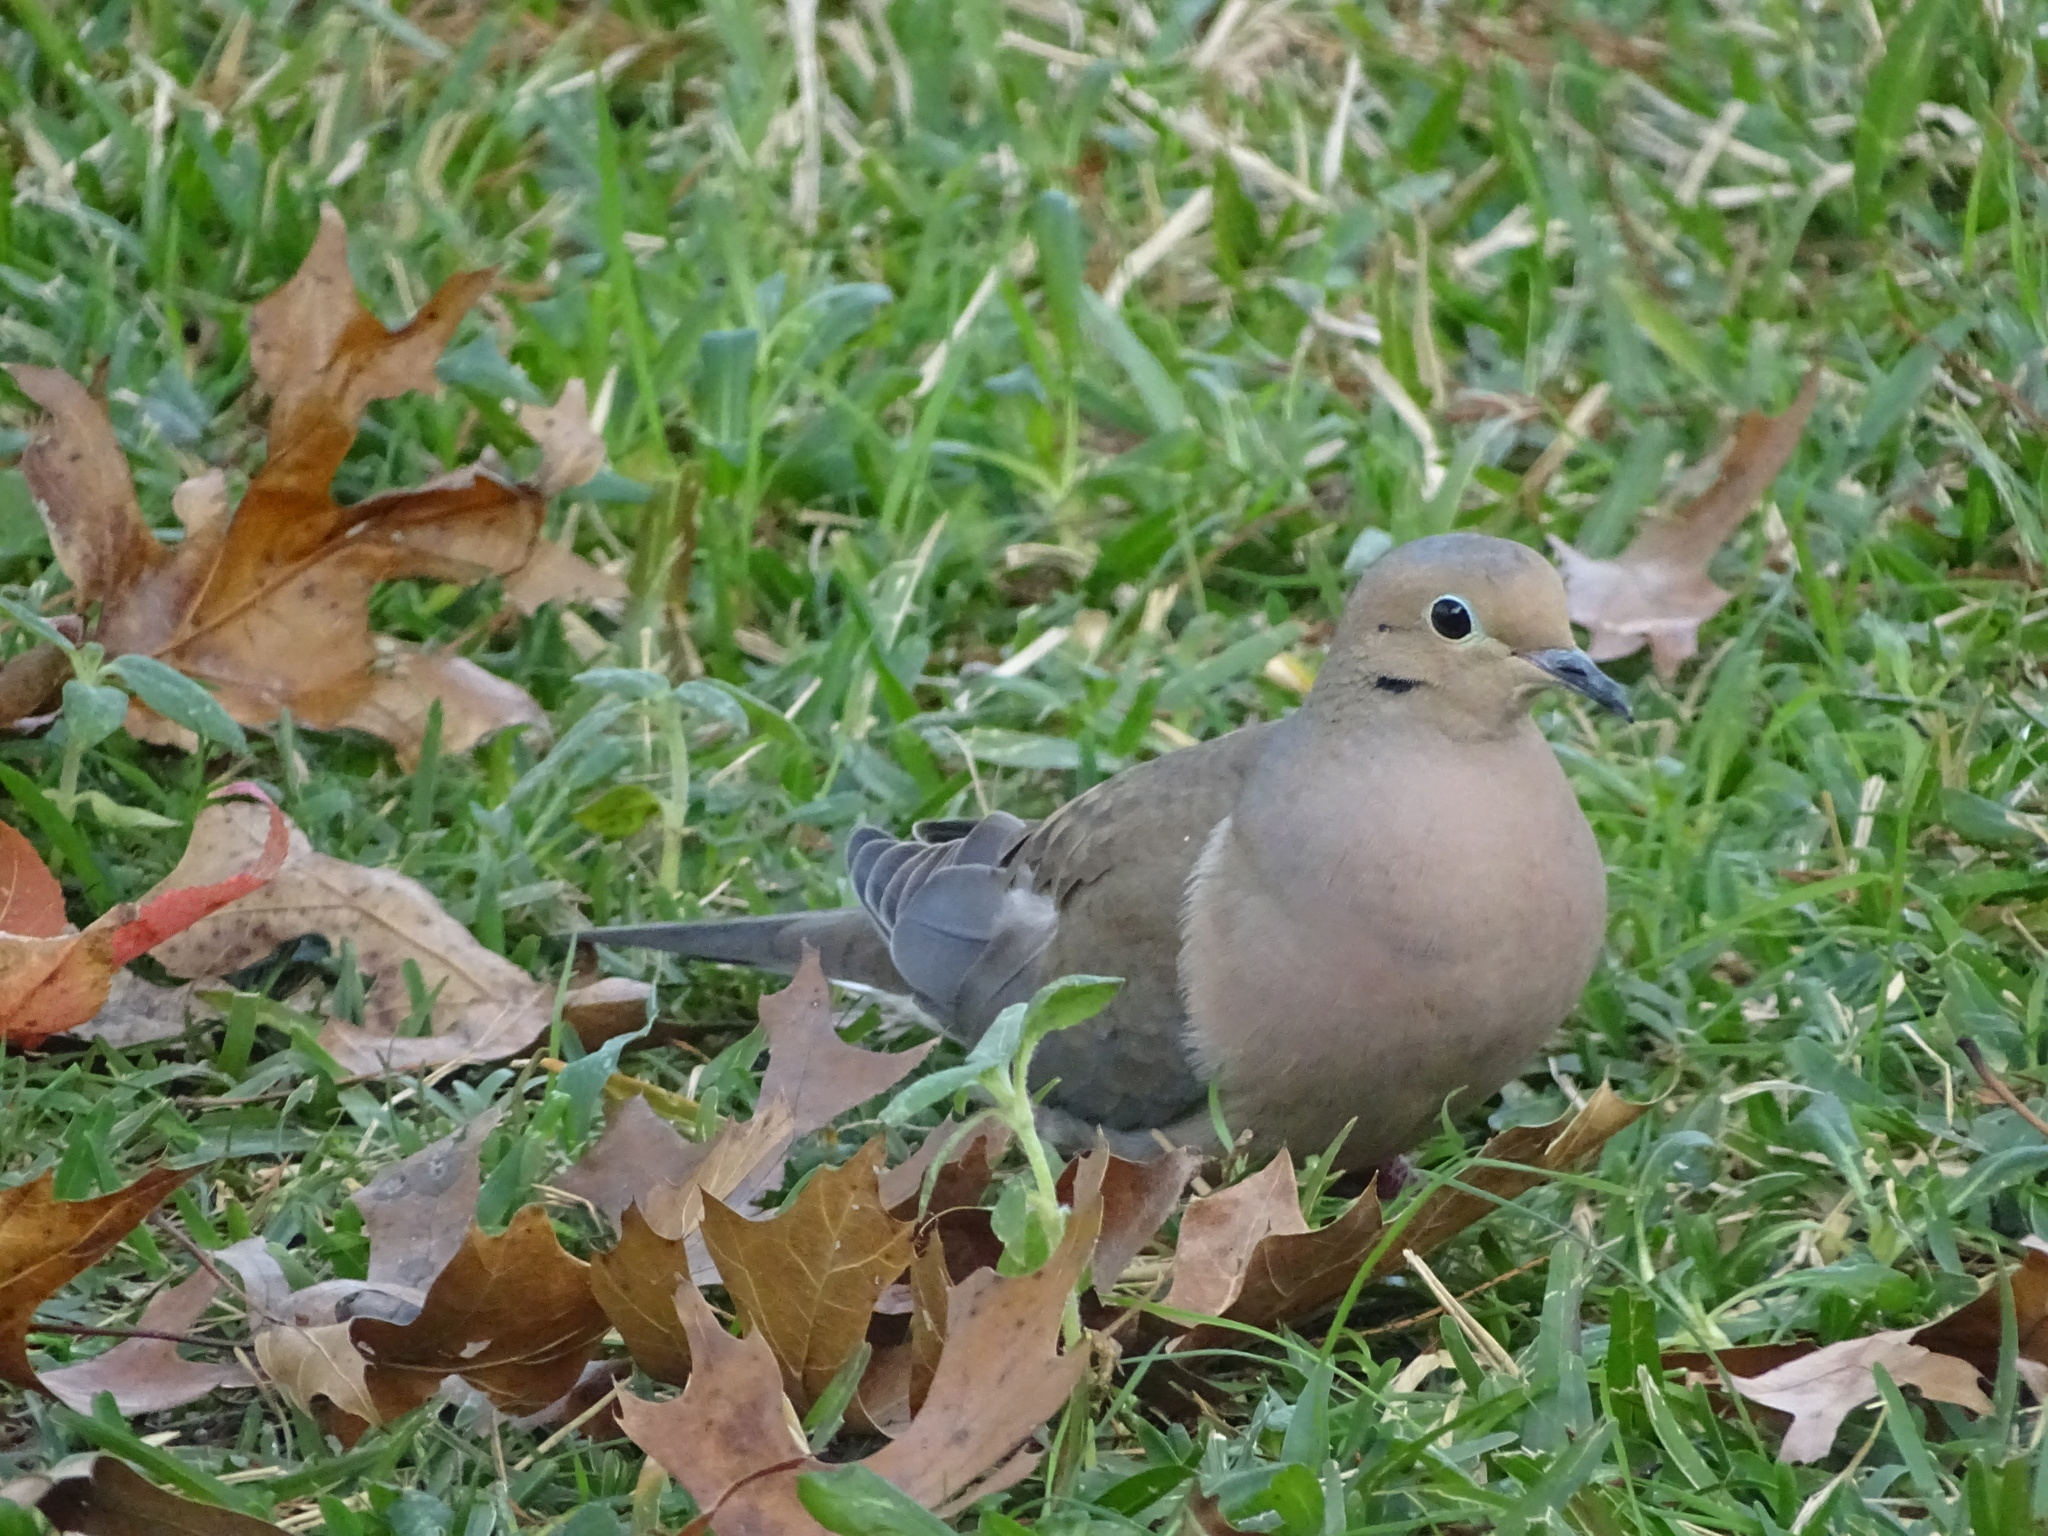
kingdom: Animalia
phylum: Chordata
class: Aves
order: Columbiformes
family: Columbidae
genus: Zenaida
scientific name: Zenaida macroura
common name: Mourning dove
